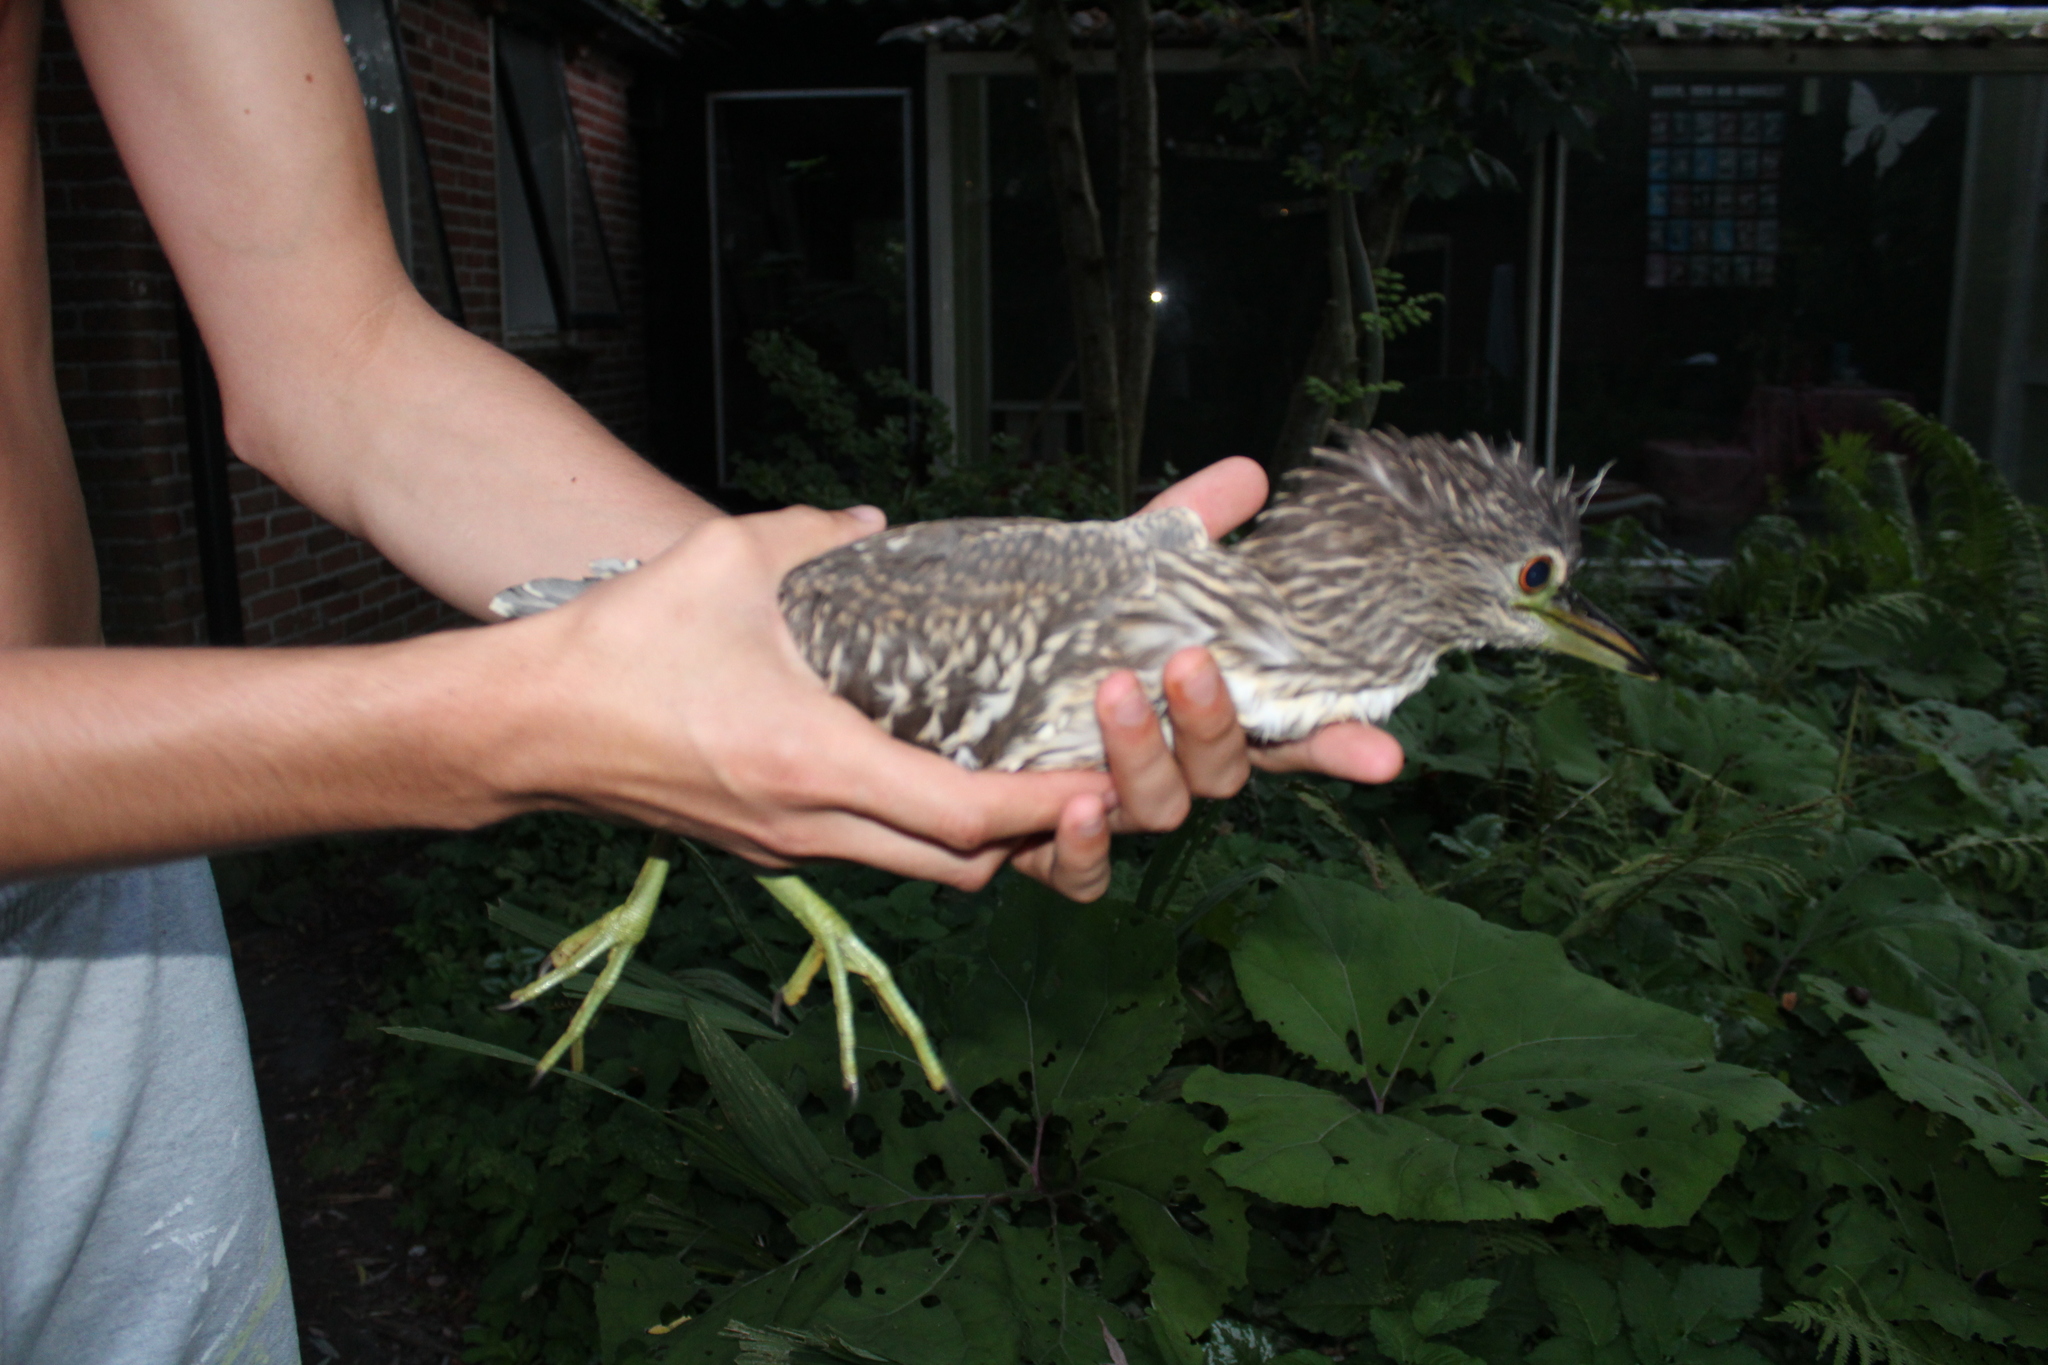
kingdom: Animalia
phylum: Chordata
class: Aves
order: Pelecaniformes
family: Ardeidae
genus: Nycticorax
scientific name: Nycticorax nycticorax
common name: Black-crowned night heron
